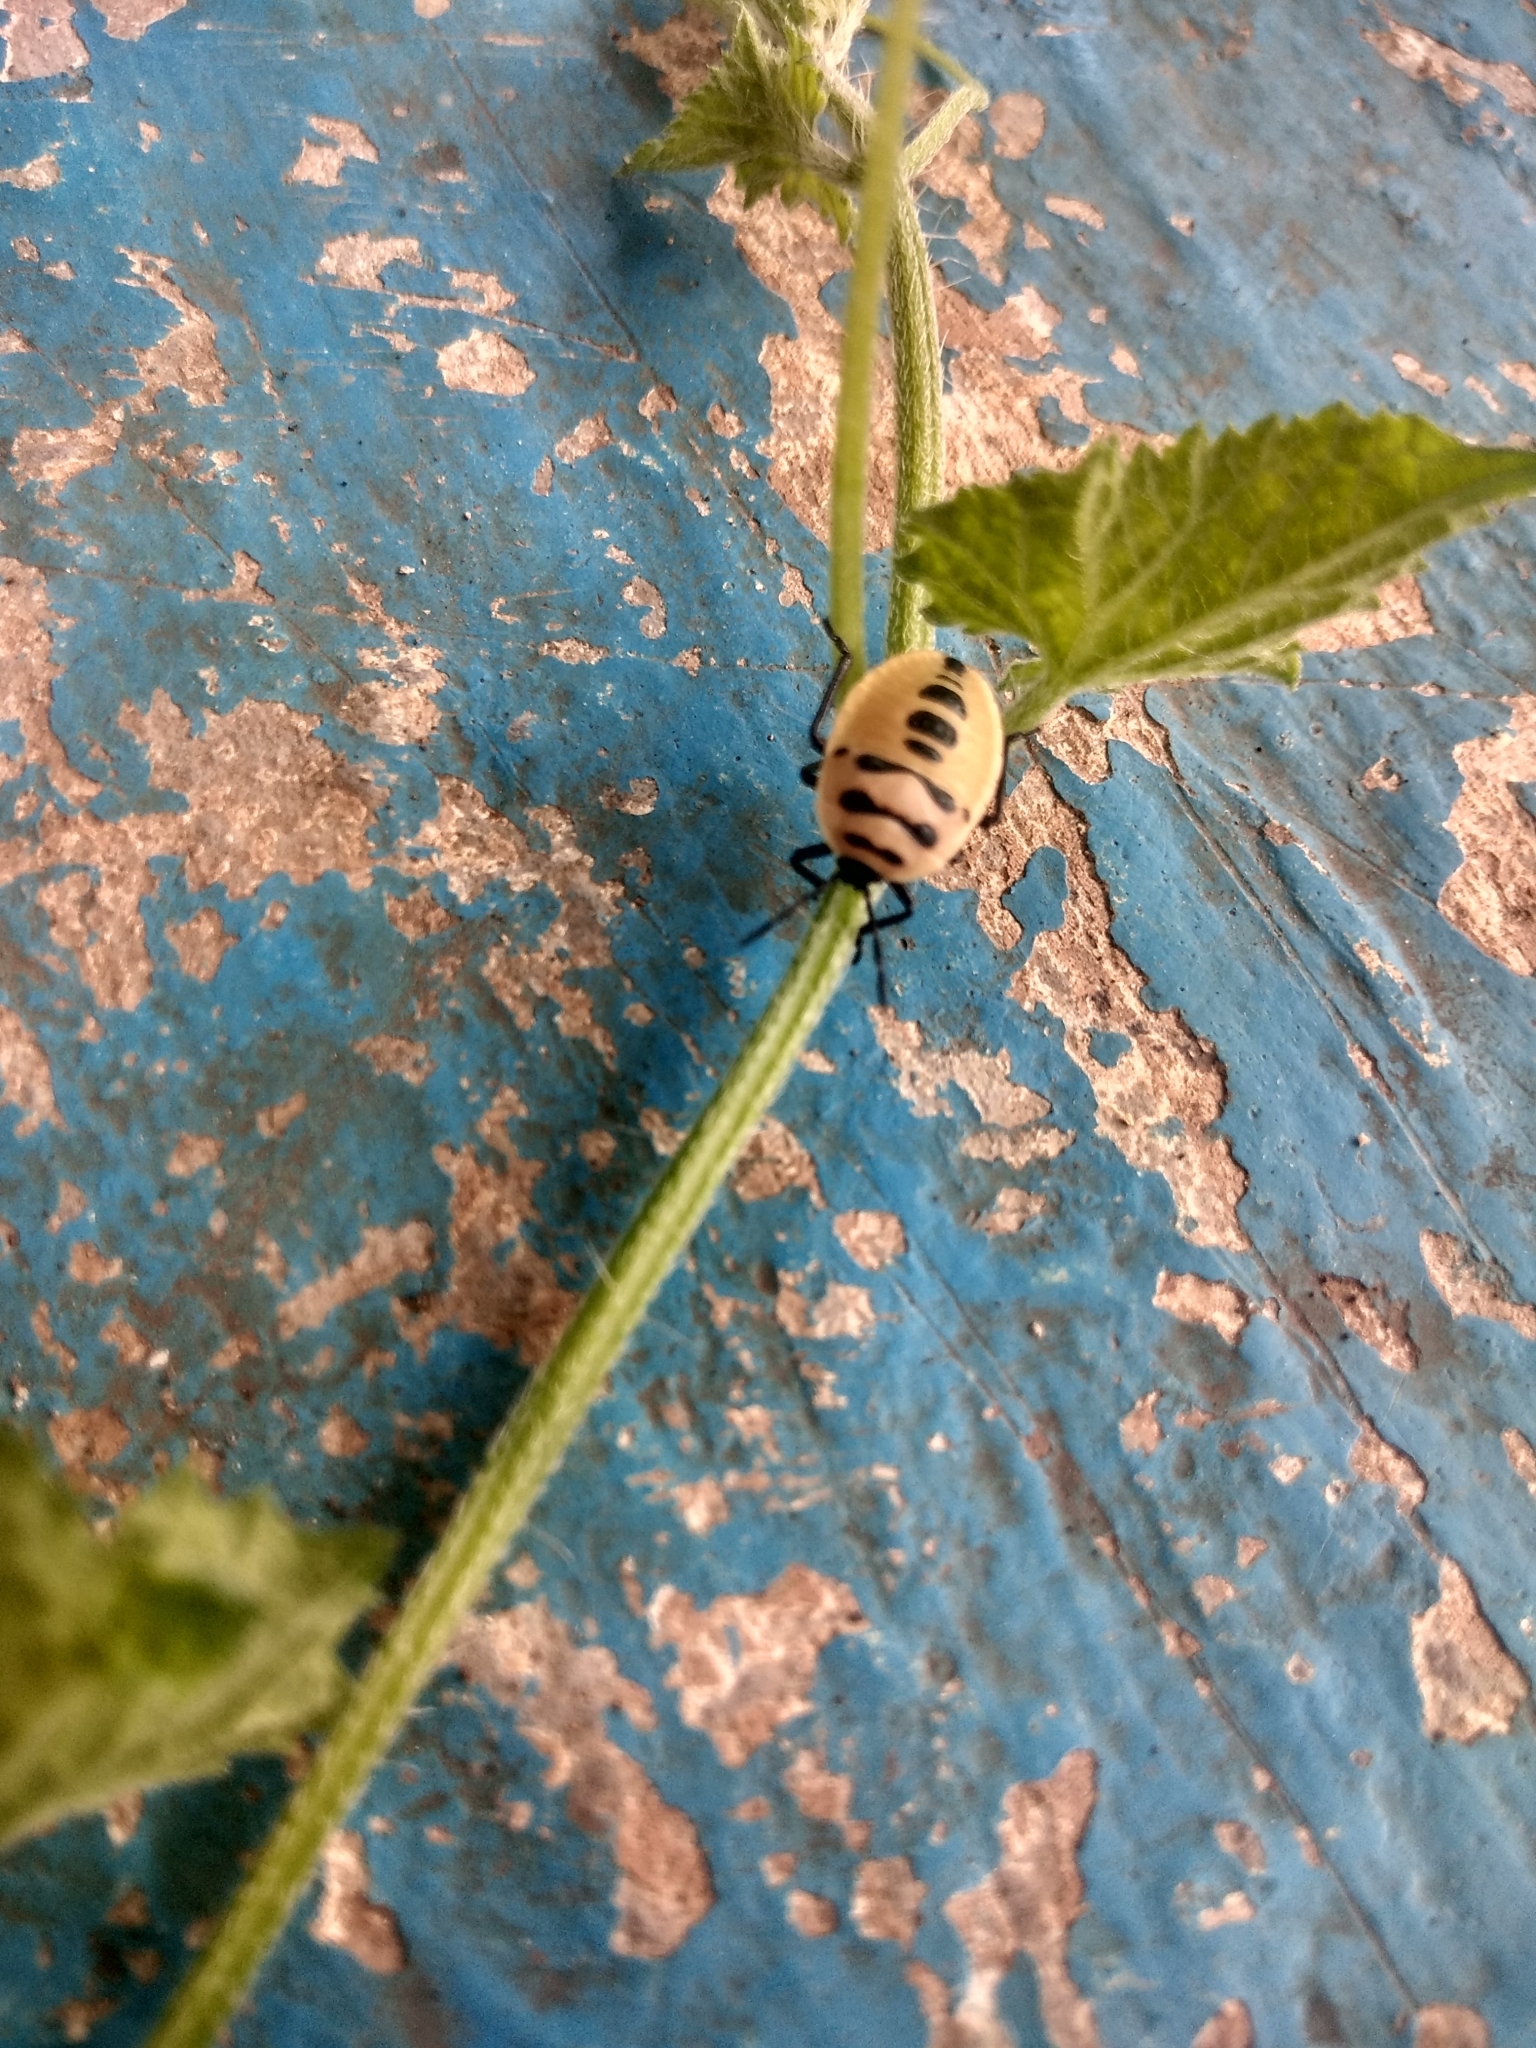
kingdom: Animalia
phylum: Arthropoda
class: Insecta
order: Hemiptera
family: Dinidoridae
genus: Coridius
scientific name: Coridius ianus
